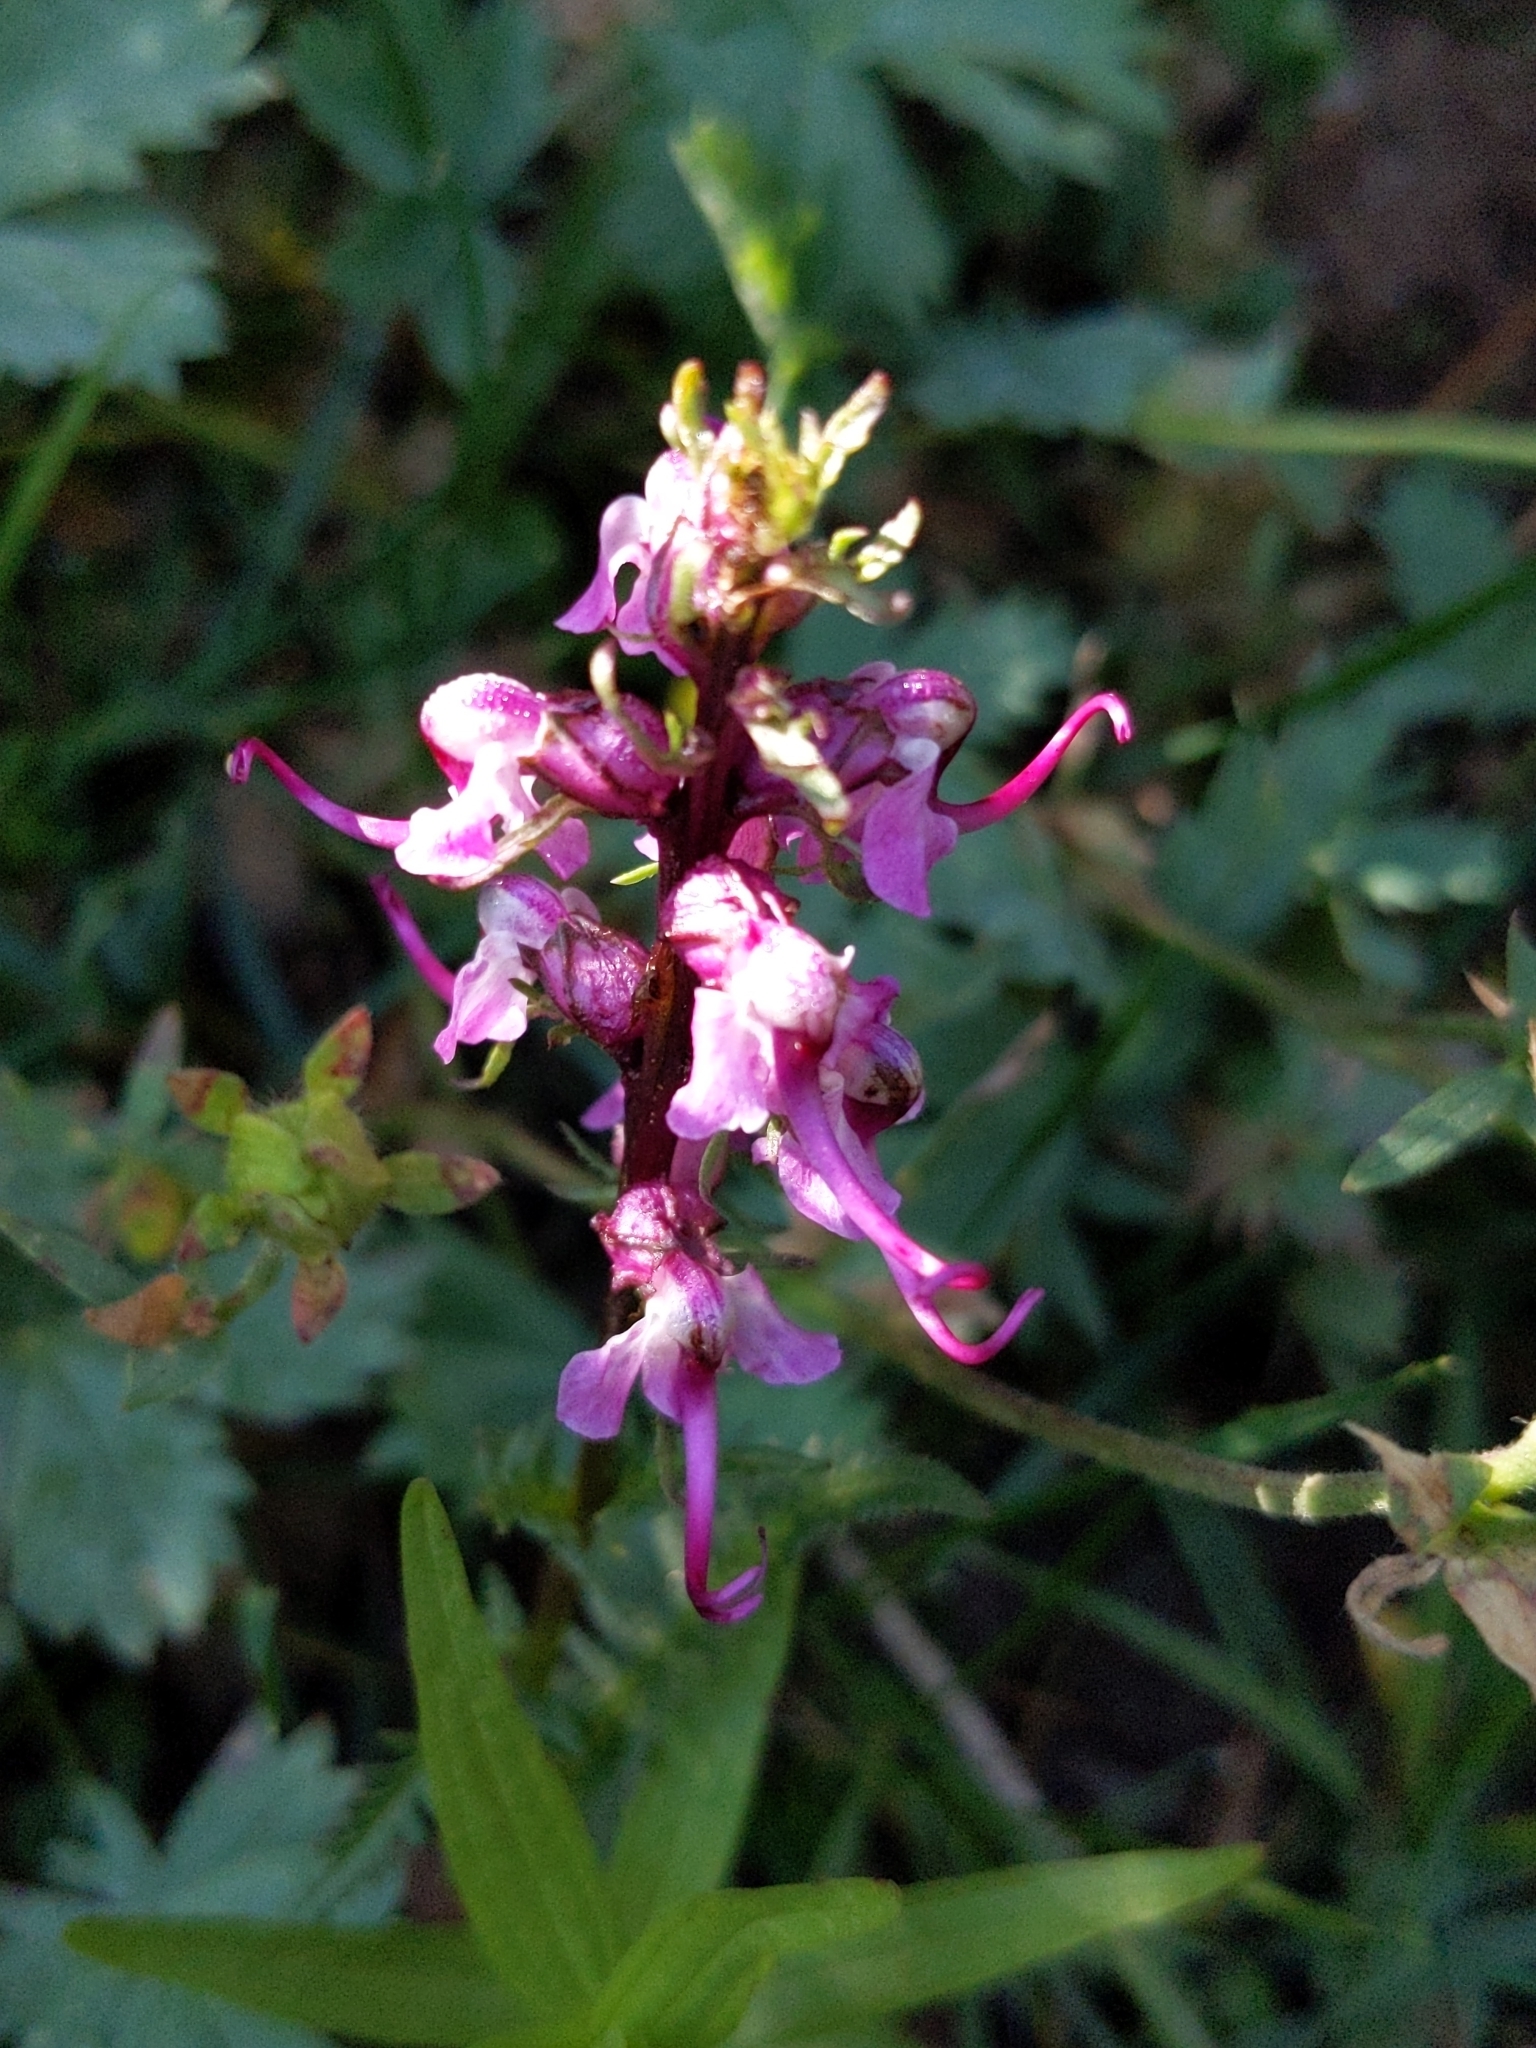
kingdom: Plantae
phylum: Tracheophyta
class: Magnoliopsida
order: Lamiales
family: Orobanchaceae
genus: Pedicularis
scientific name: Pedicularis groenlandica
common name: Elephant's-head
